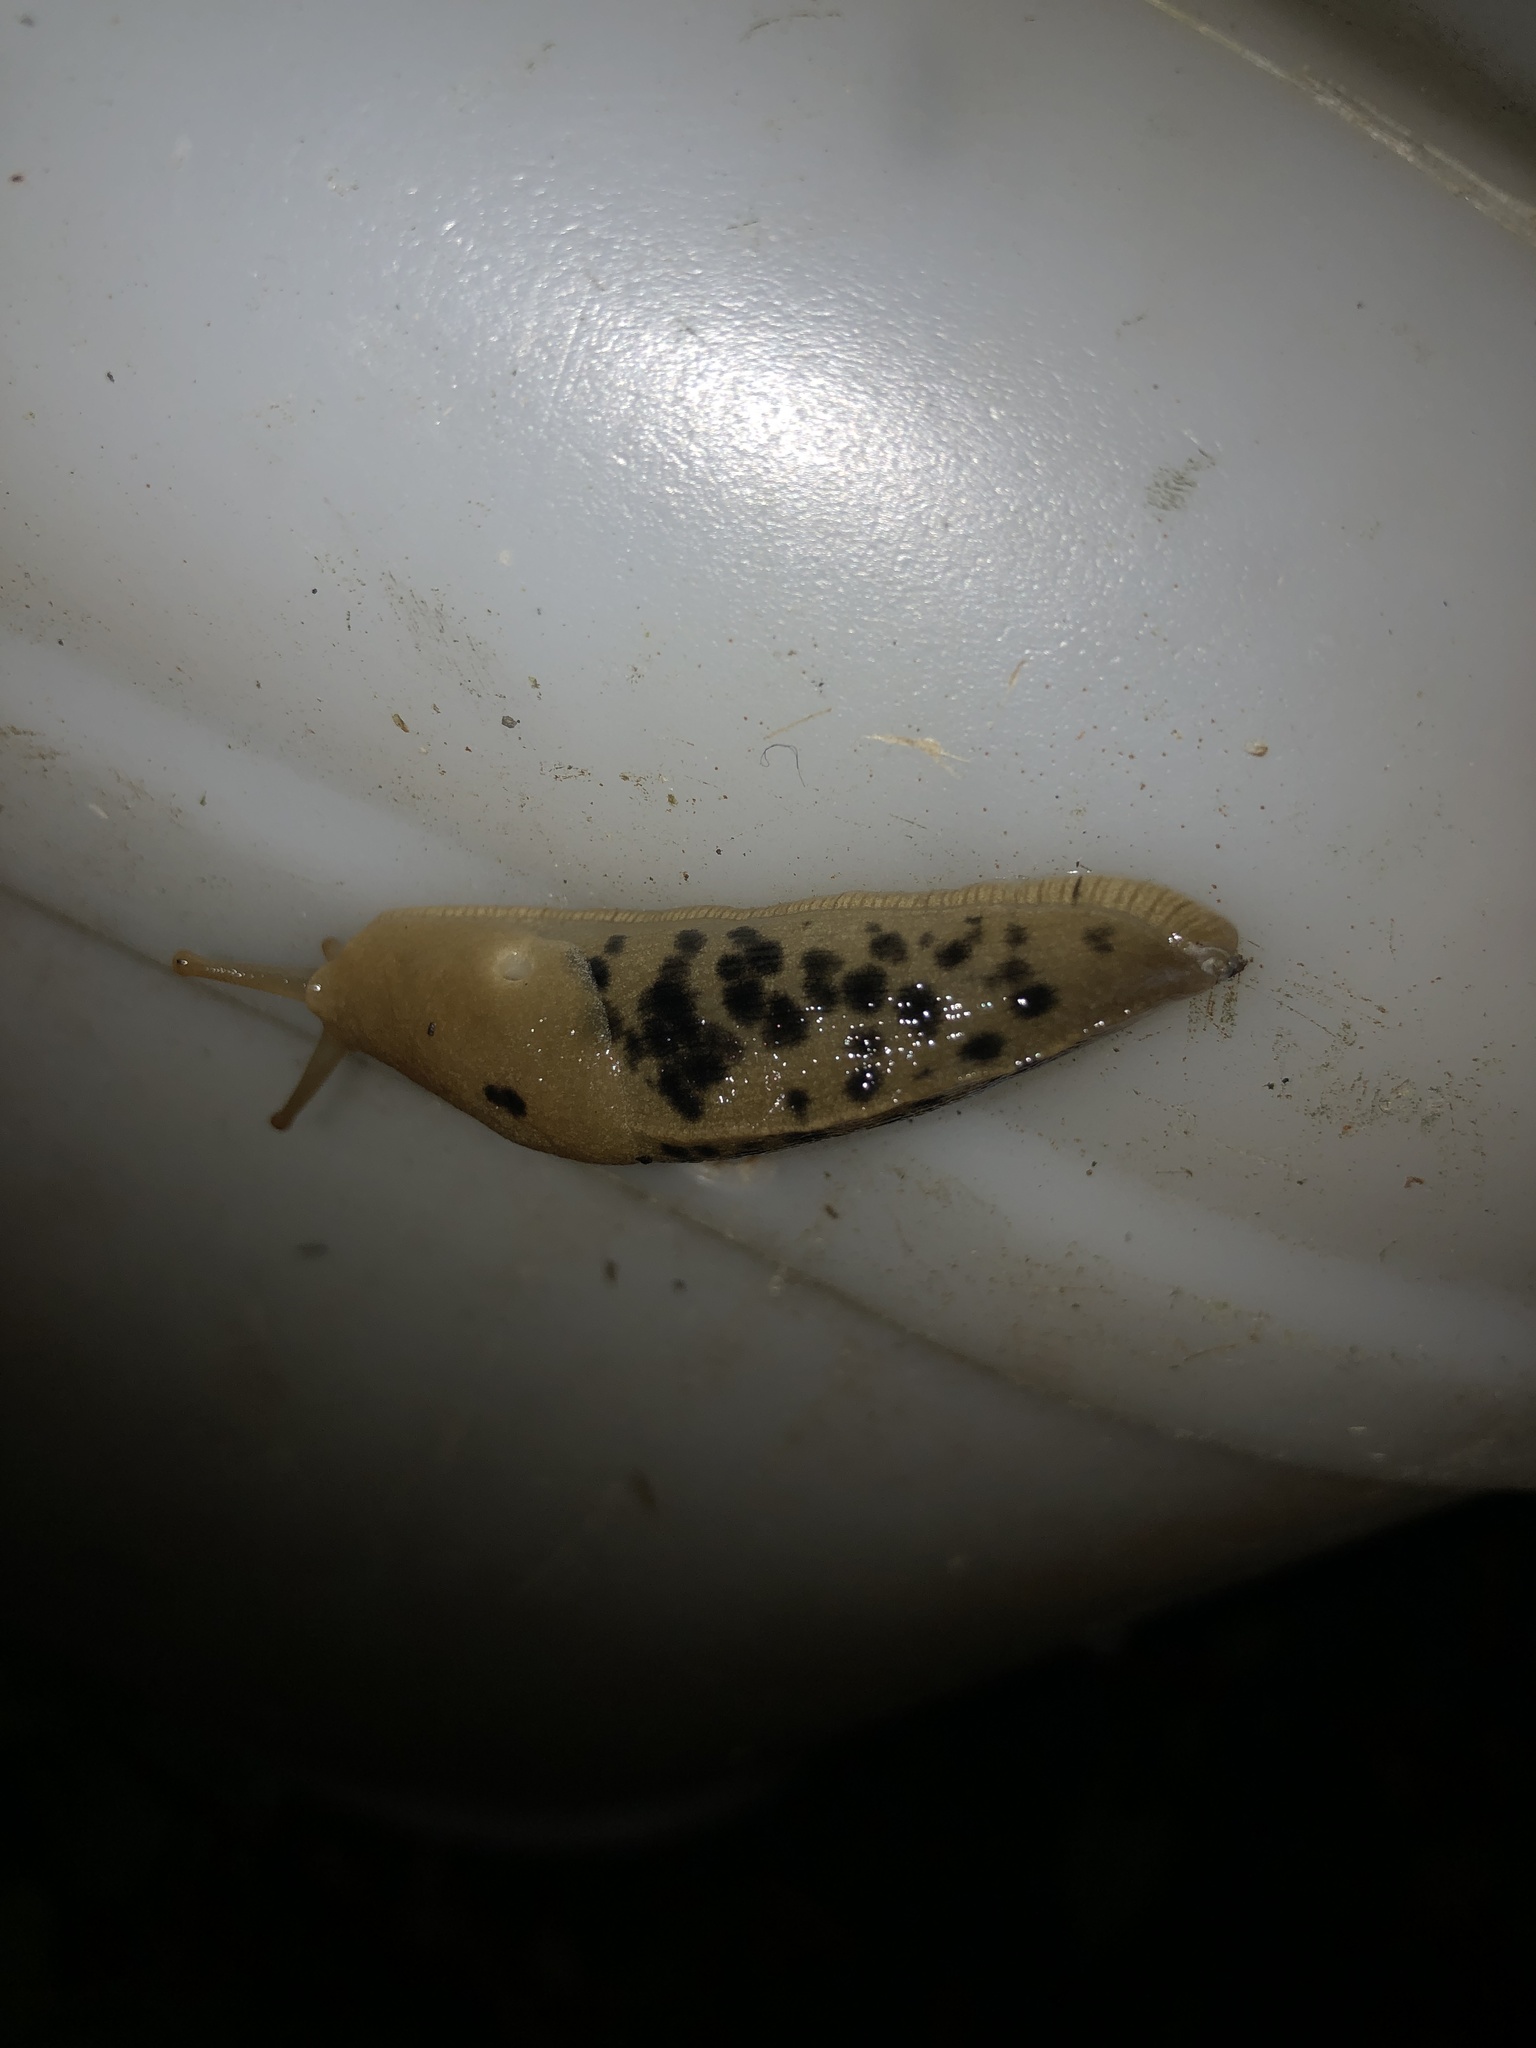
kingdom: Animalia
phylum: Mollusca
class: Gastropoda
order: Stylommatophora
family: Ariolimacidae
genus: Ariolimax
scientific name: Ariolimax columbianus
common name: Pacific banana slug
